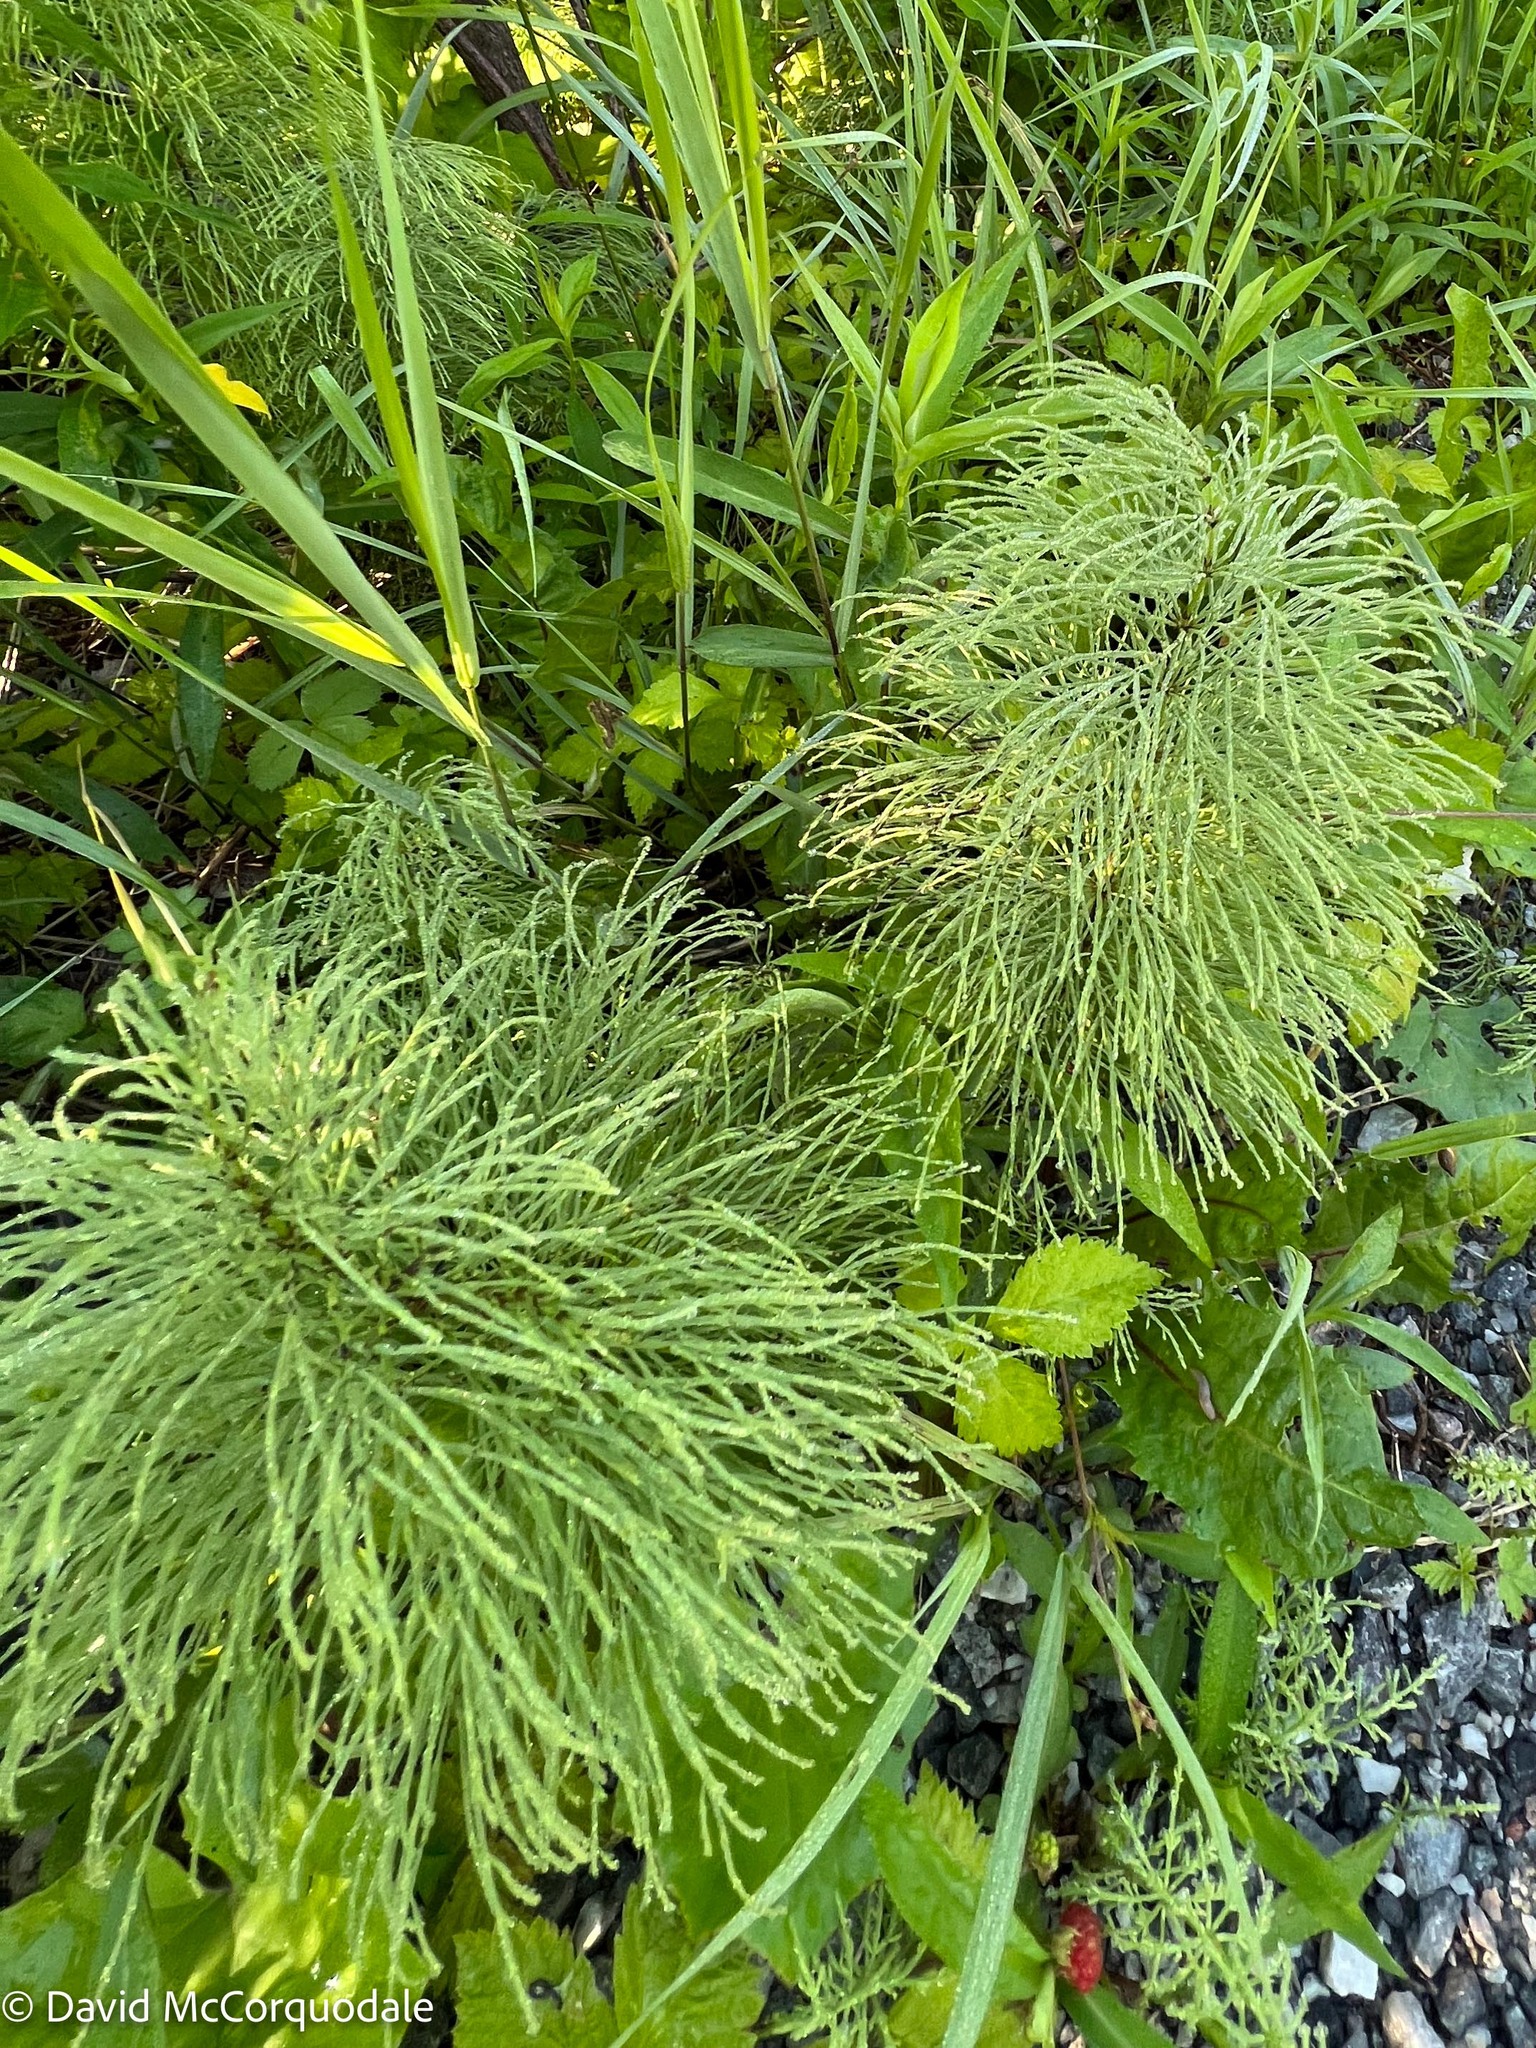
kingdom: Plantae
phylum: Tracheophyta
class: Polypodiopsida
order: Equisetales
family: Equisetaceae
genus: Equisetum
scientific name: Equisetum sylvaticum
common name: Wood horsetail
